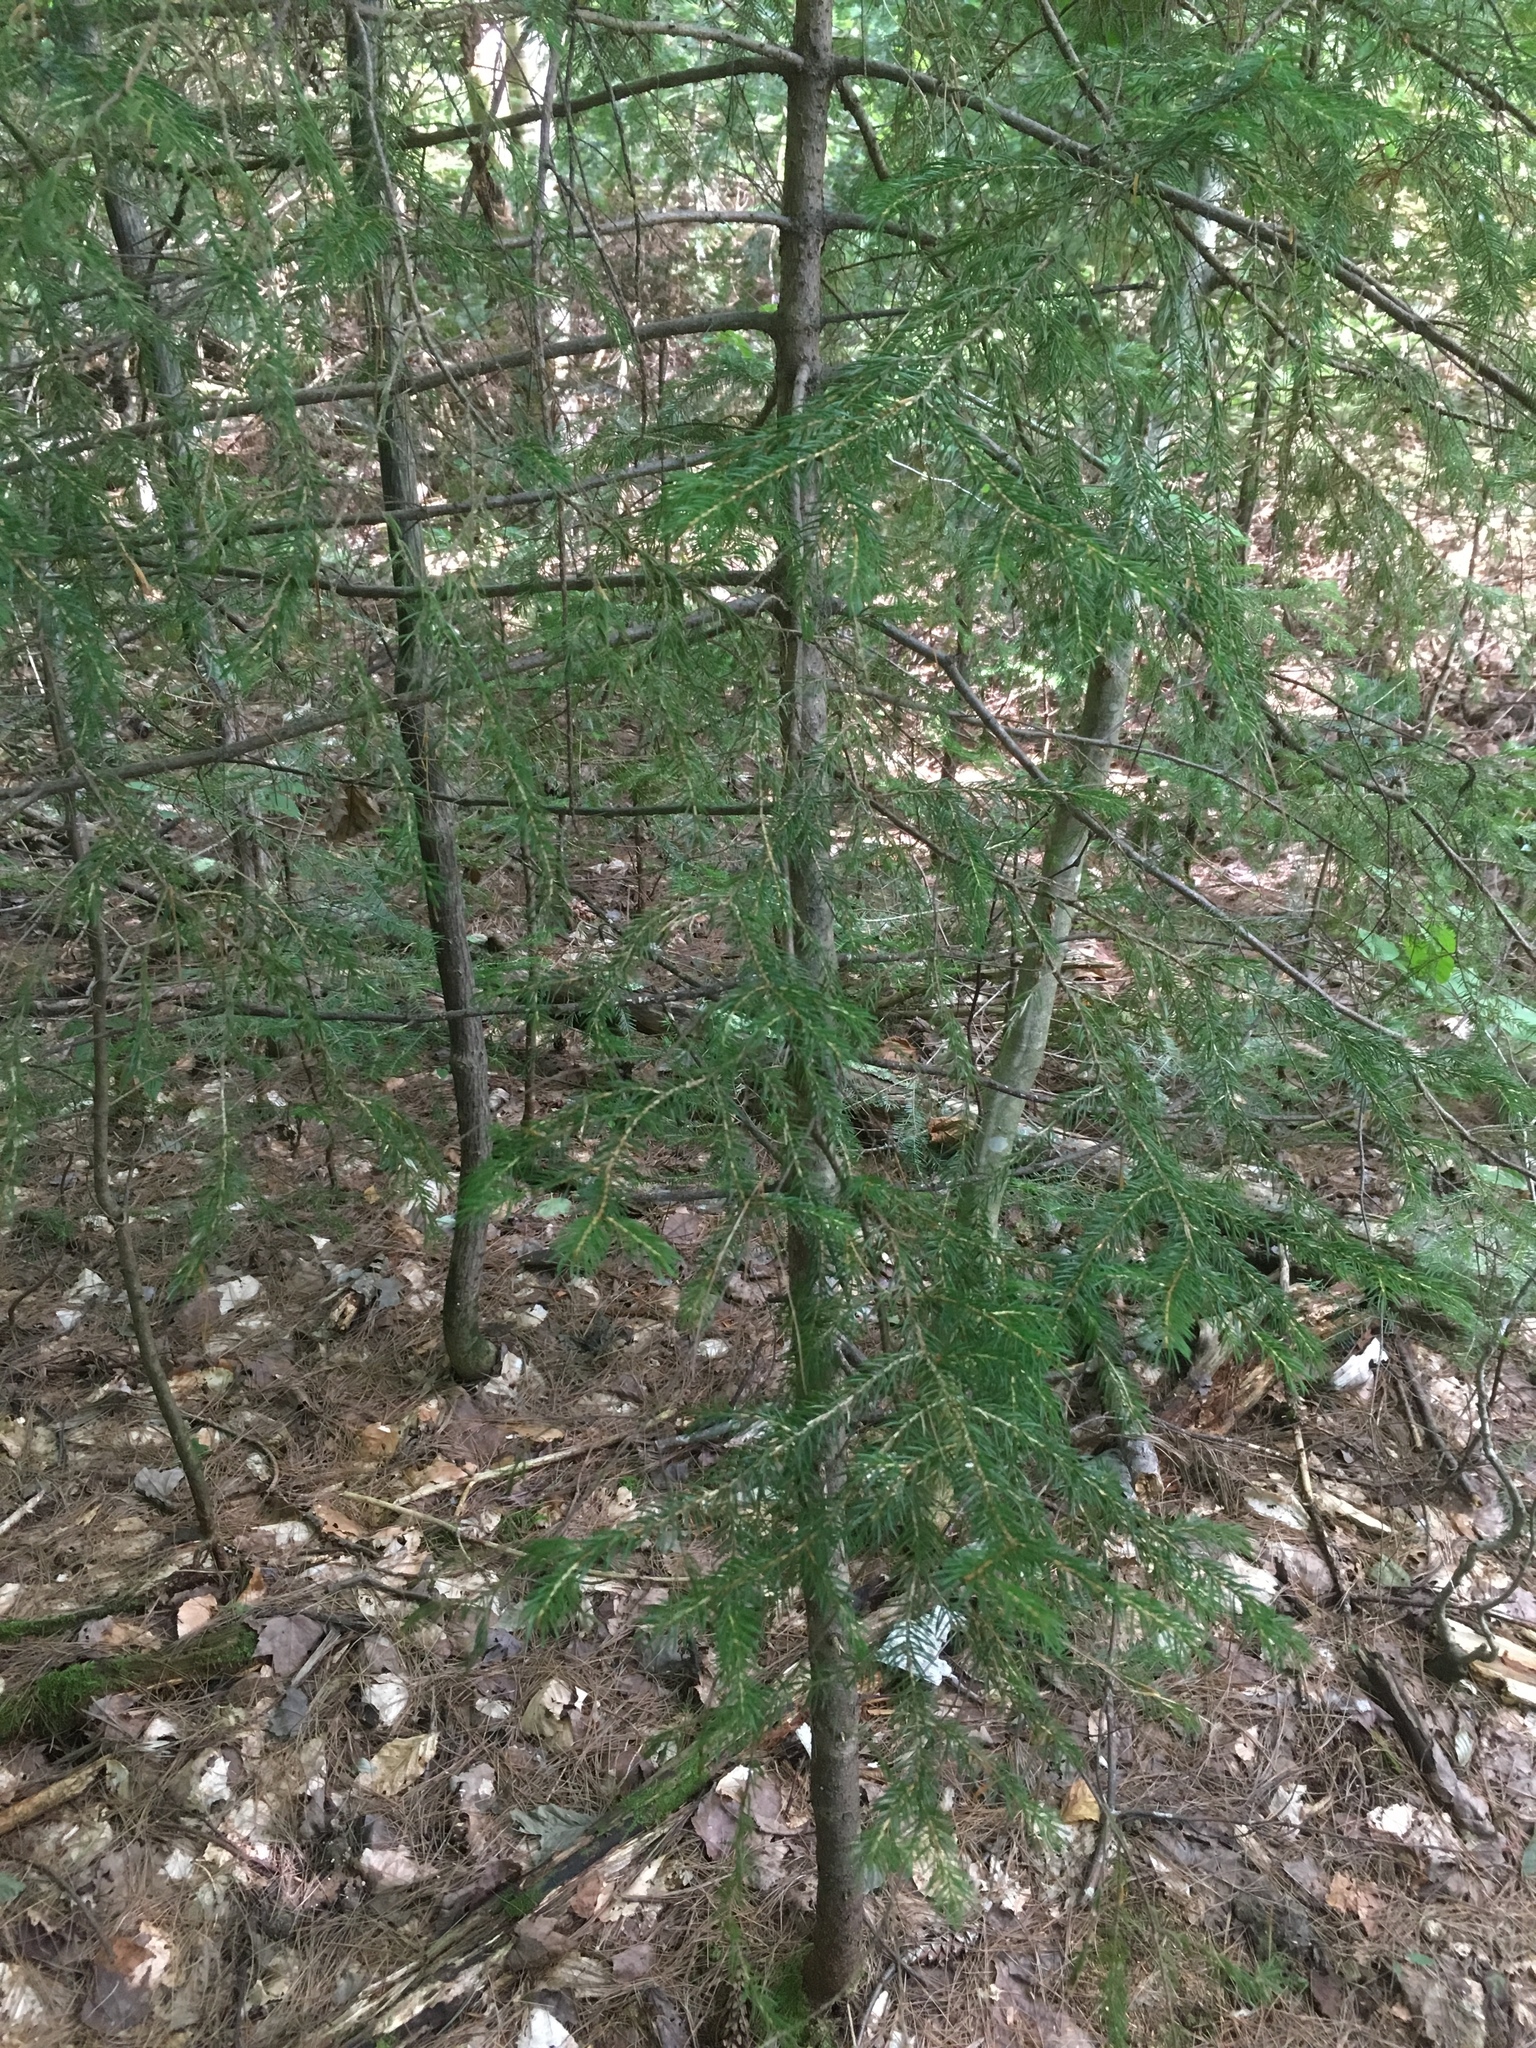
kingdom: Plantae
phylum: Tracheophyta
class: Pinopsida
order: Pinales
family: Pinaceae
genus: Picea
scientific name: Picea rubens
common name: Red spruce
